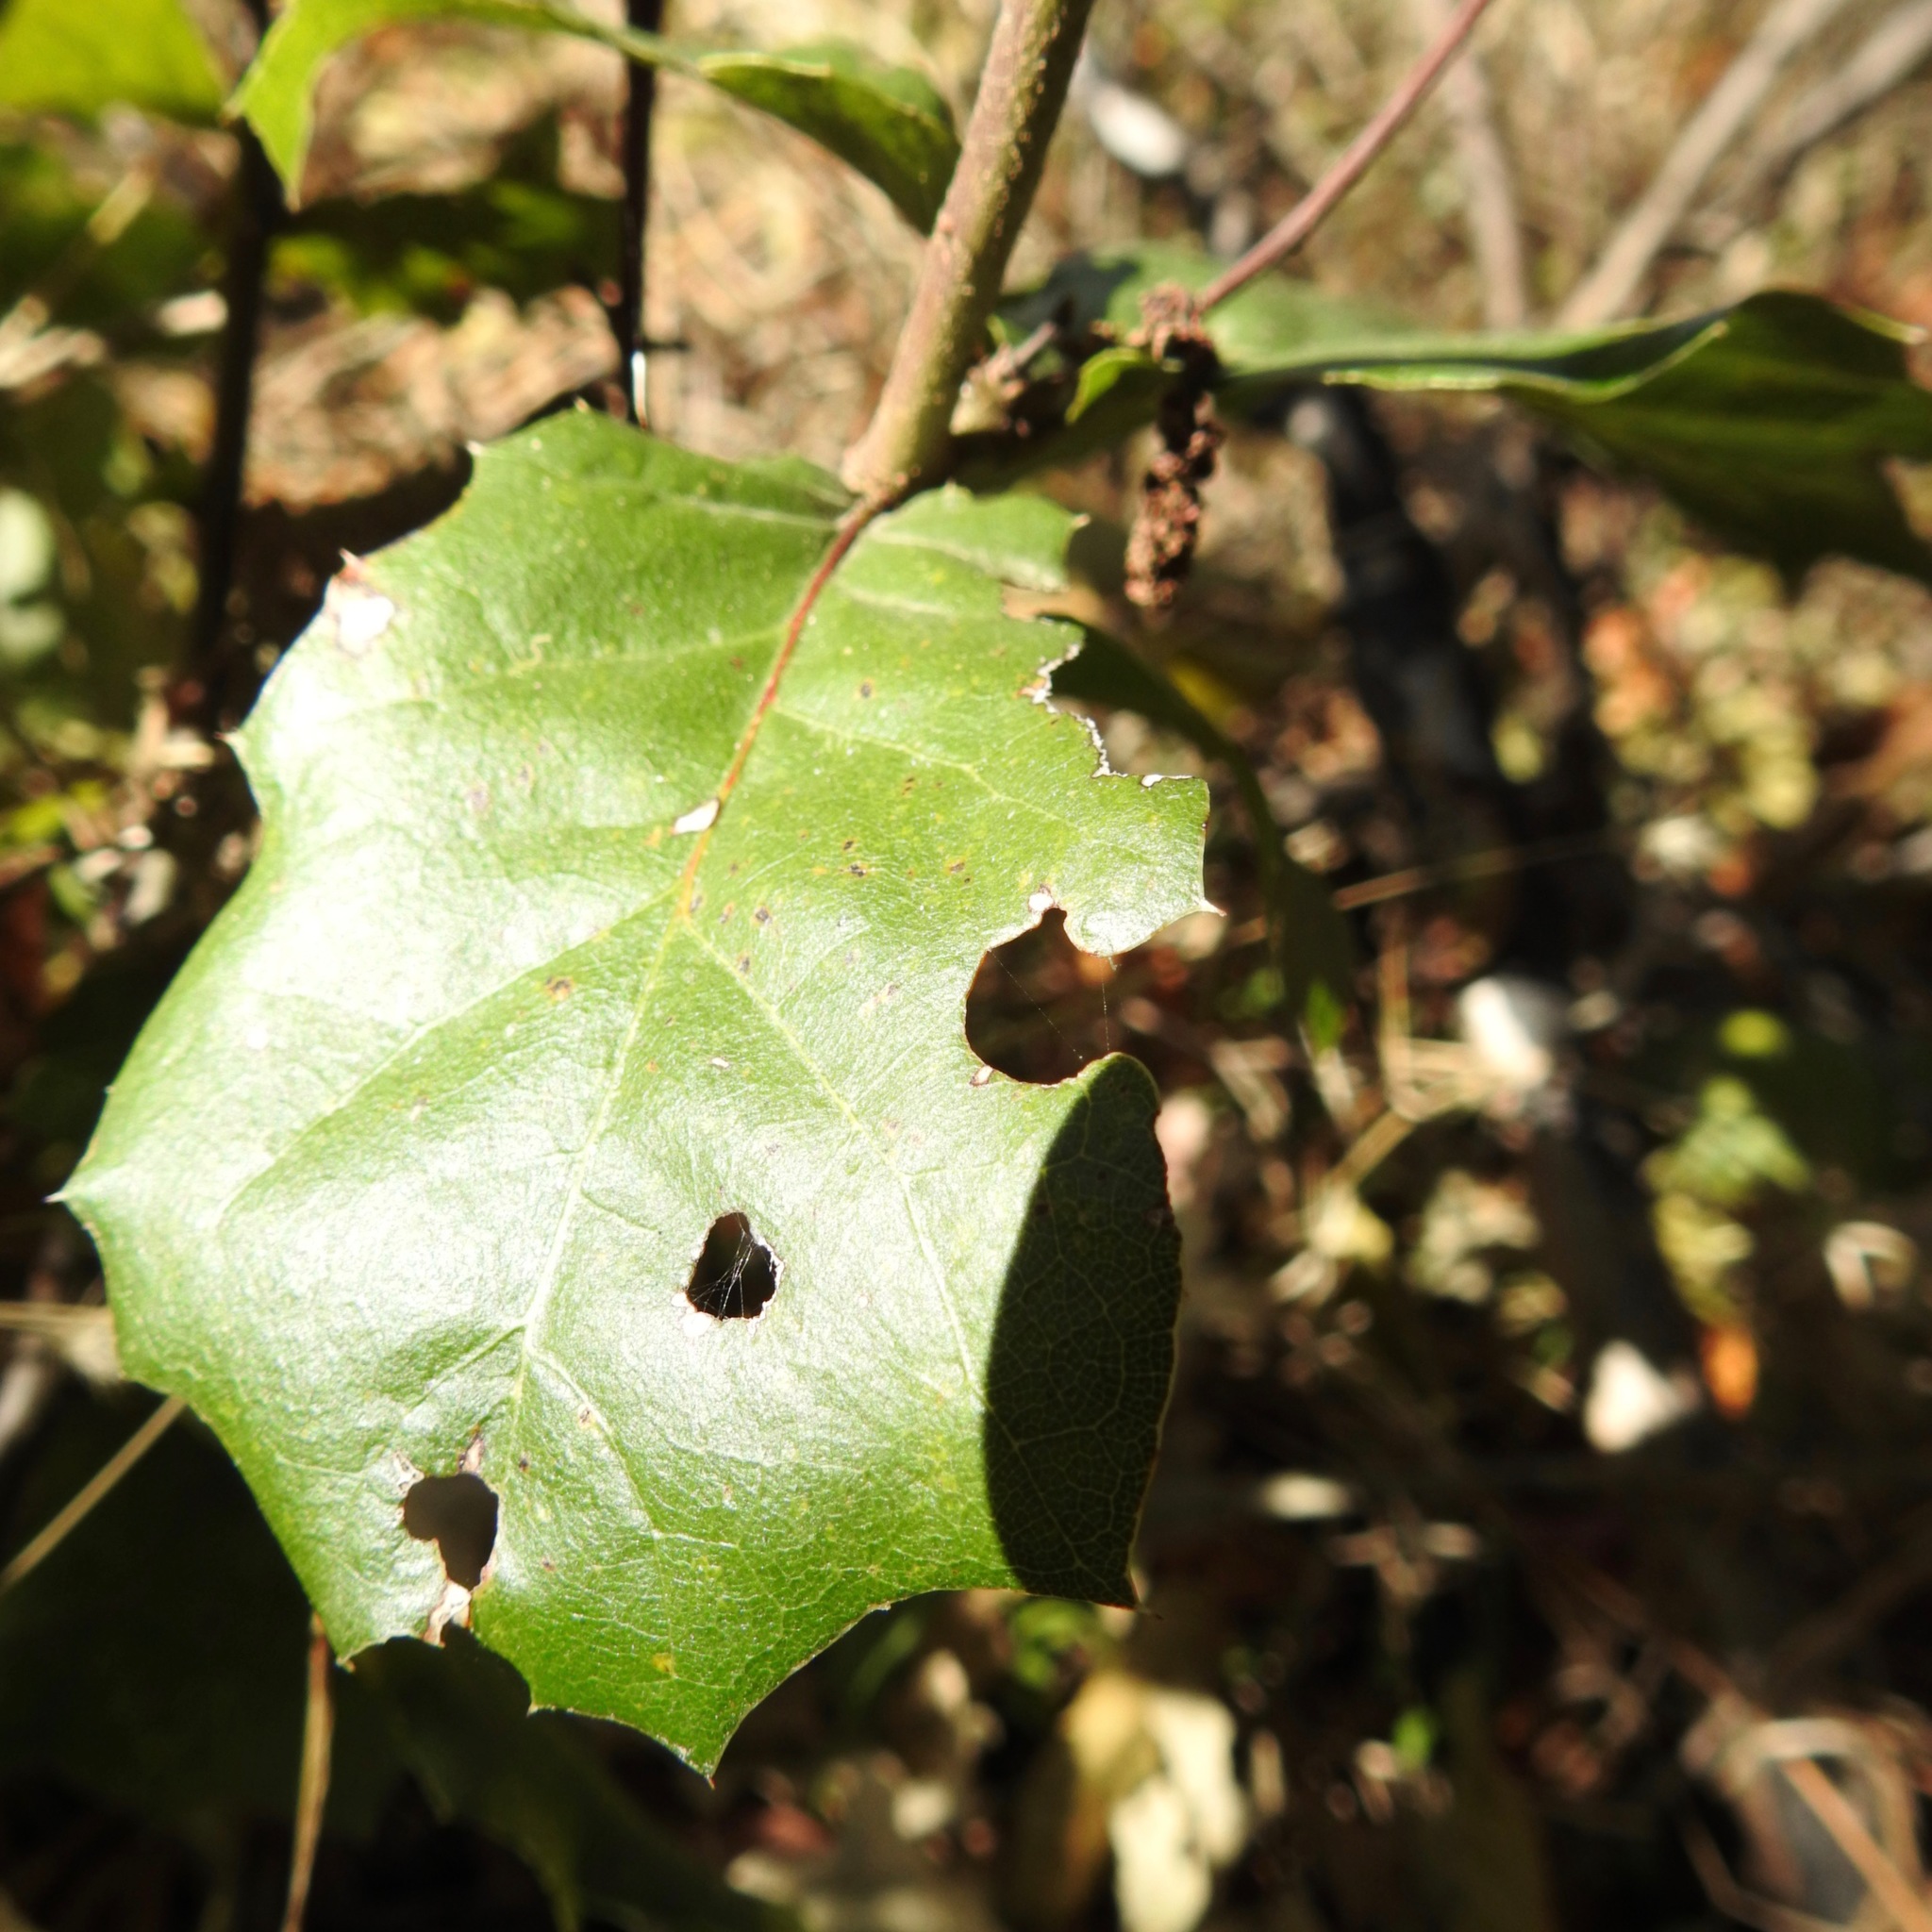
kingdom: Plantae
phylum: Tracheophyta
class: Magnoliopsida
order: Fagales
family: Fagaceae
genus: Quercus
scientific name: Quercus agrifolia
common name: California live oak
